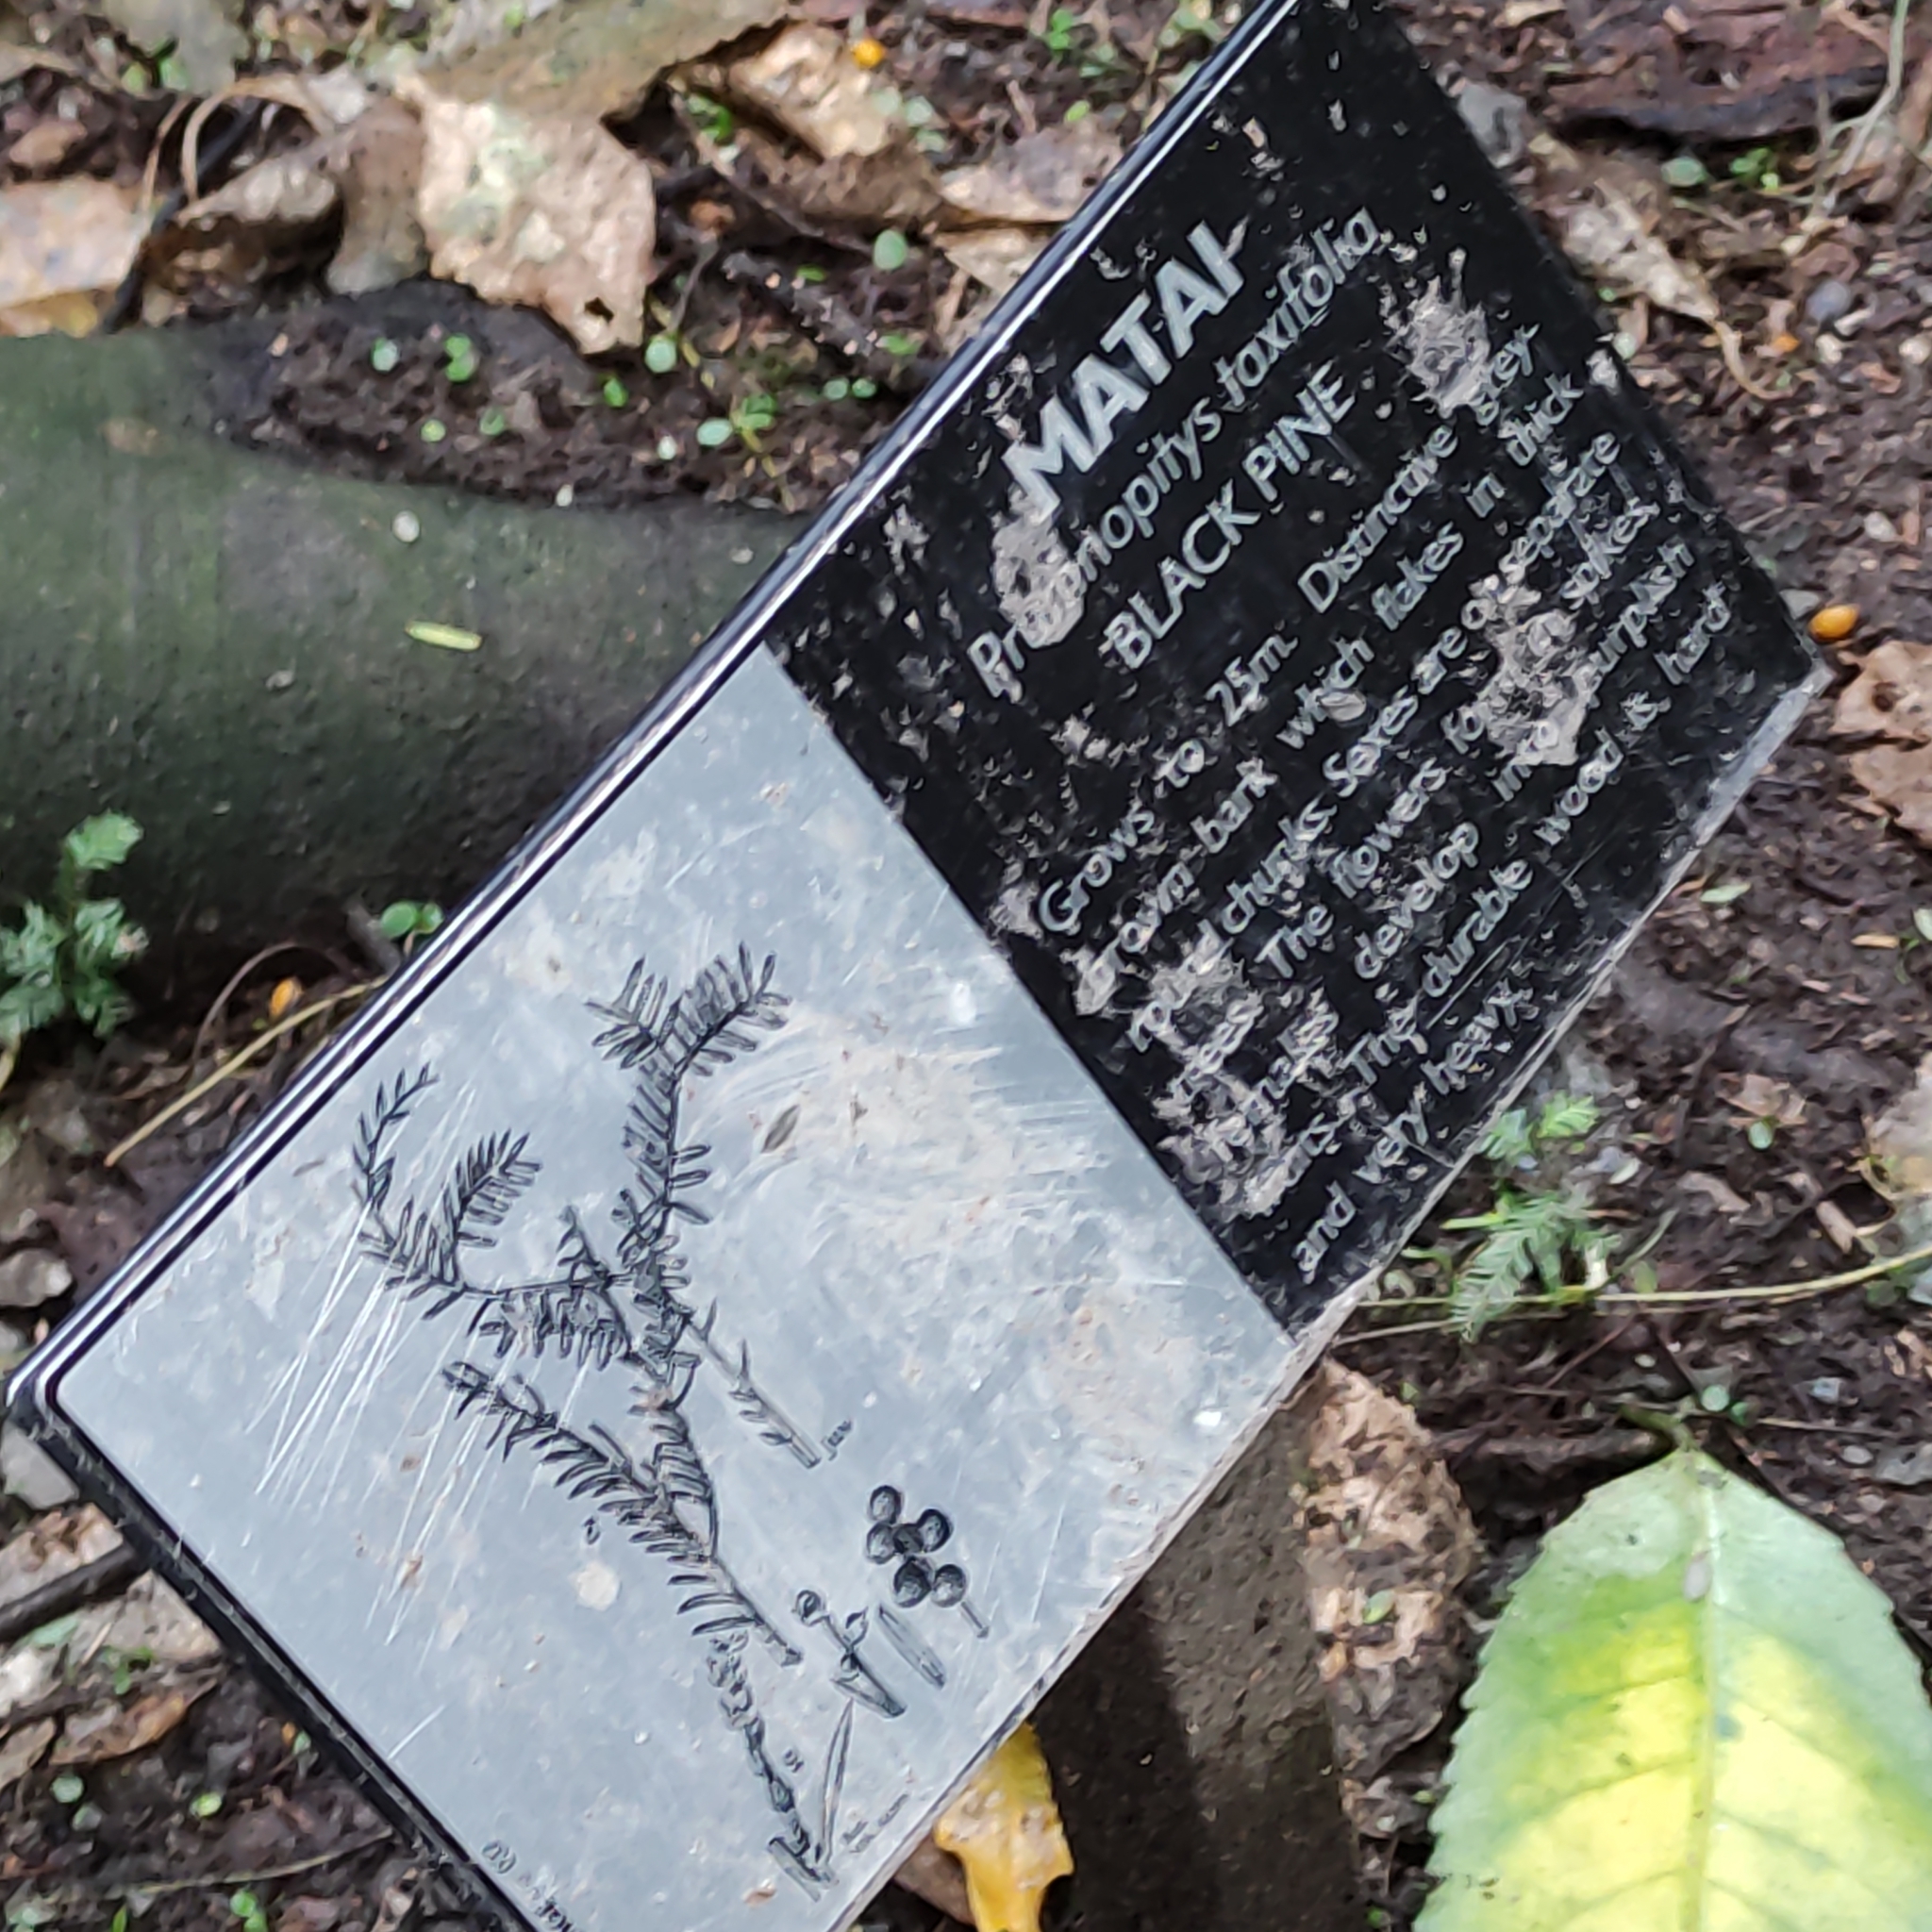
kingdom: Plantae
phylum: Tracheophyta
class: Pinopsida
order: Pinales
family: Podocarpaceae
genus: Prumnopitys
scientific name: Prumnopitys taxifolia
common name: Matai
